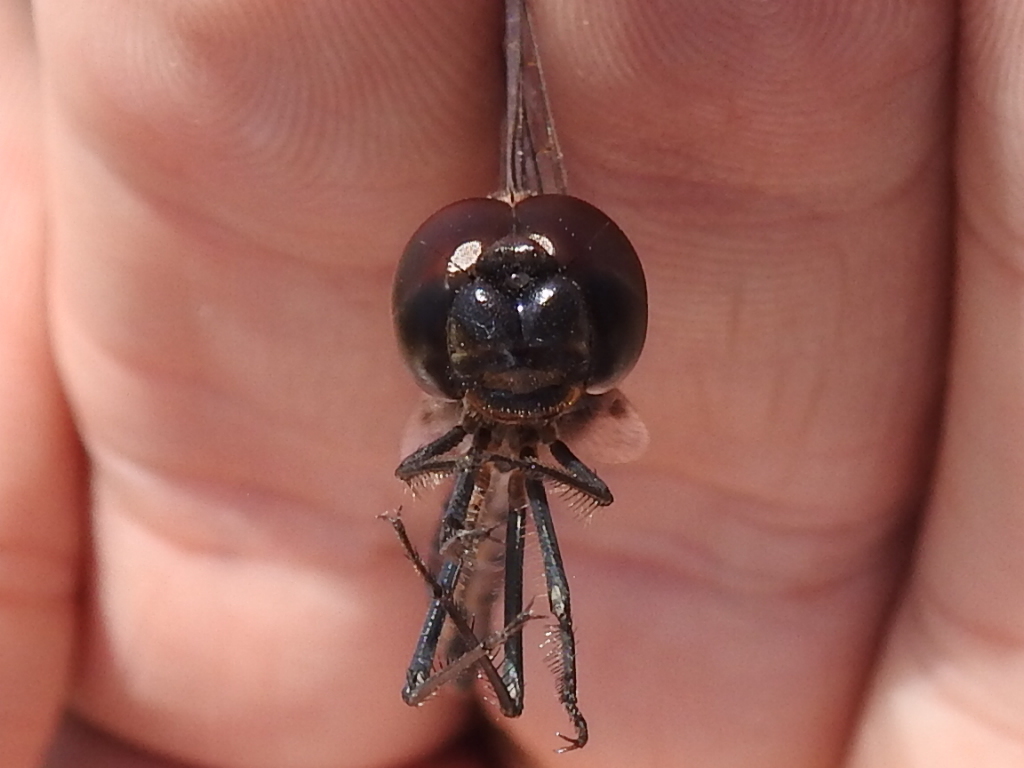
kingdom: Animalia
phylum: Arthropoda
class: Insecta
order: Odonata
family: Libellulidae
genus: Macrodiplax
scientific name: Macrodiplax balteata
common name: Marl pennant
